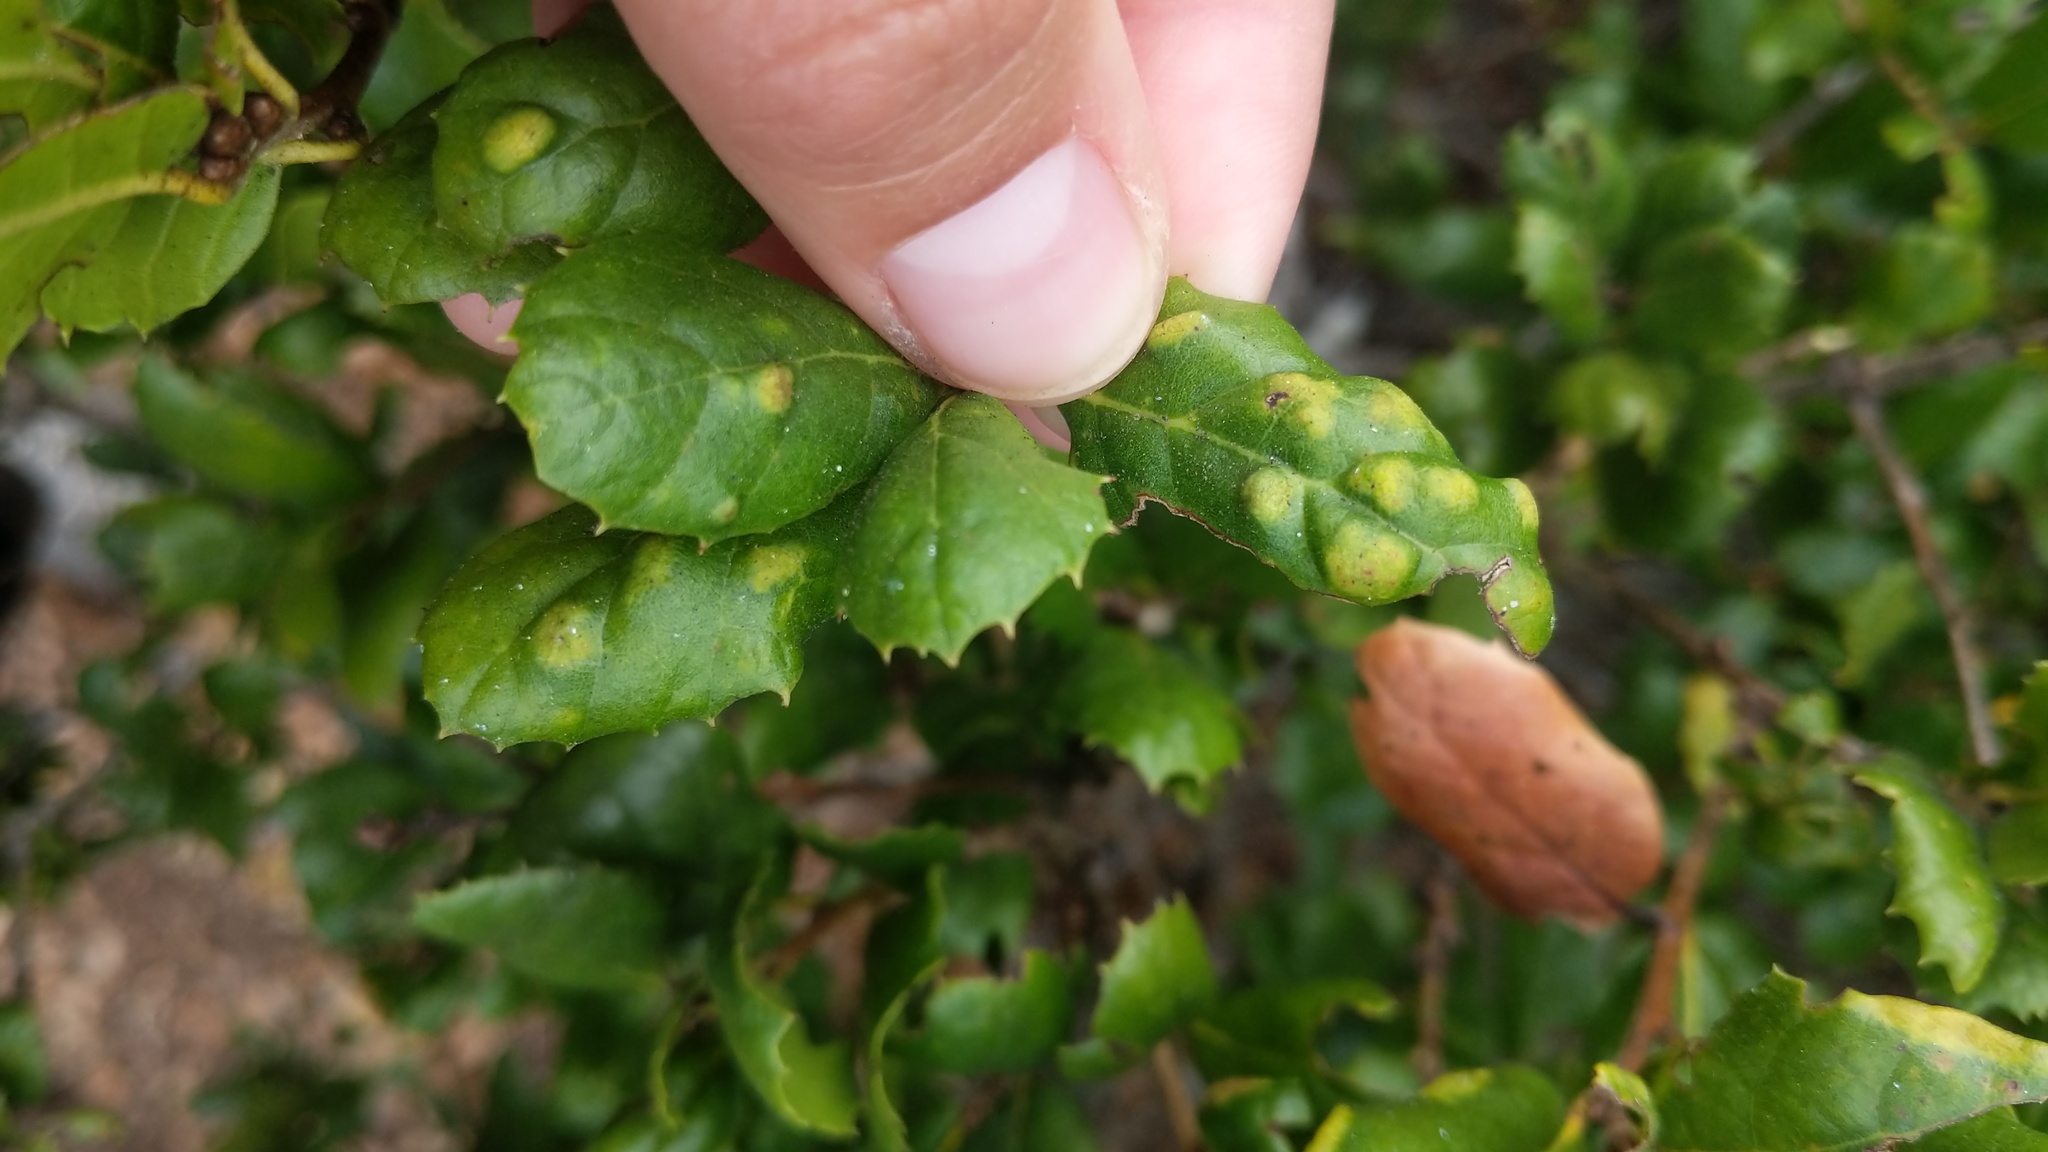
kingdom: Animalia
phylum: Arthropoda
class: Arachnida
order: Trombidiformes
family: Eriophyidae
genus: Aceria
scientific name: Aceria
